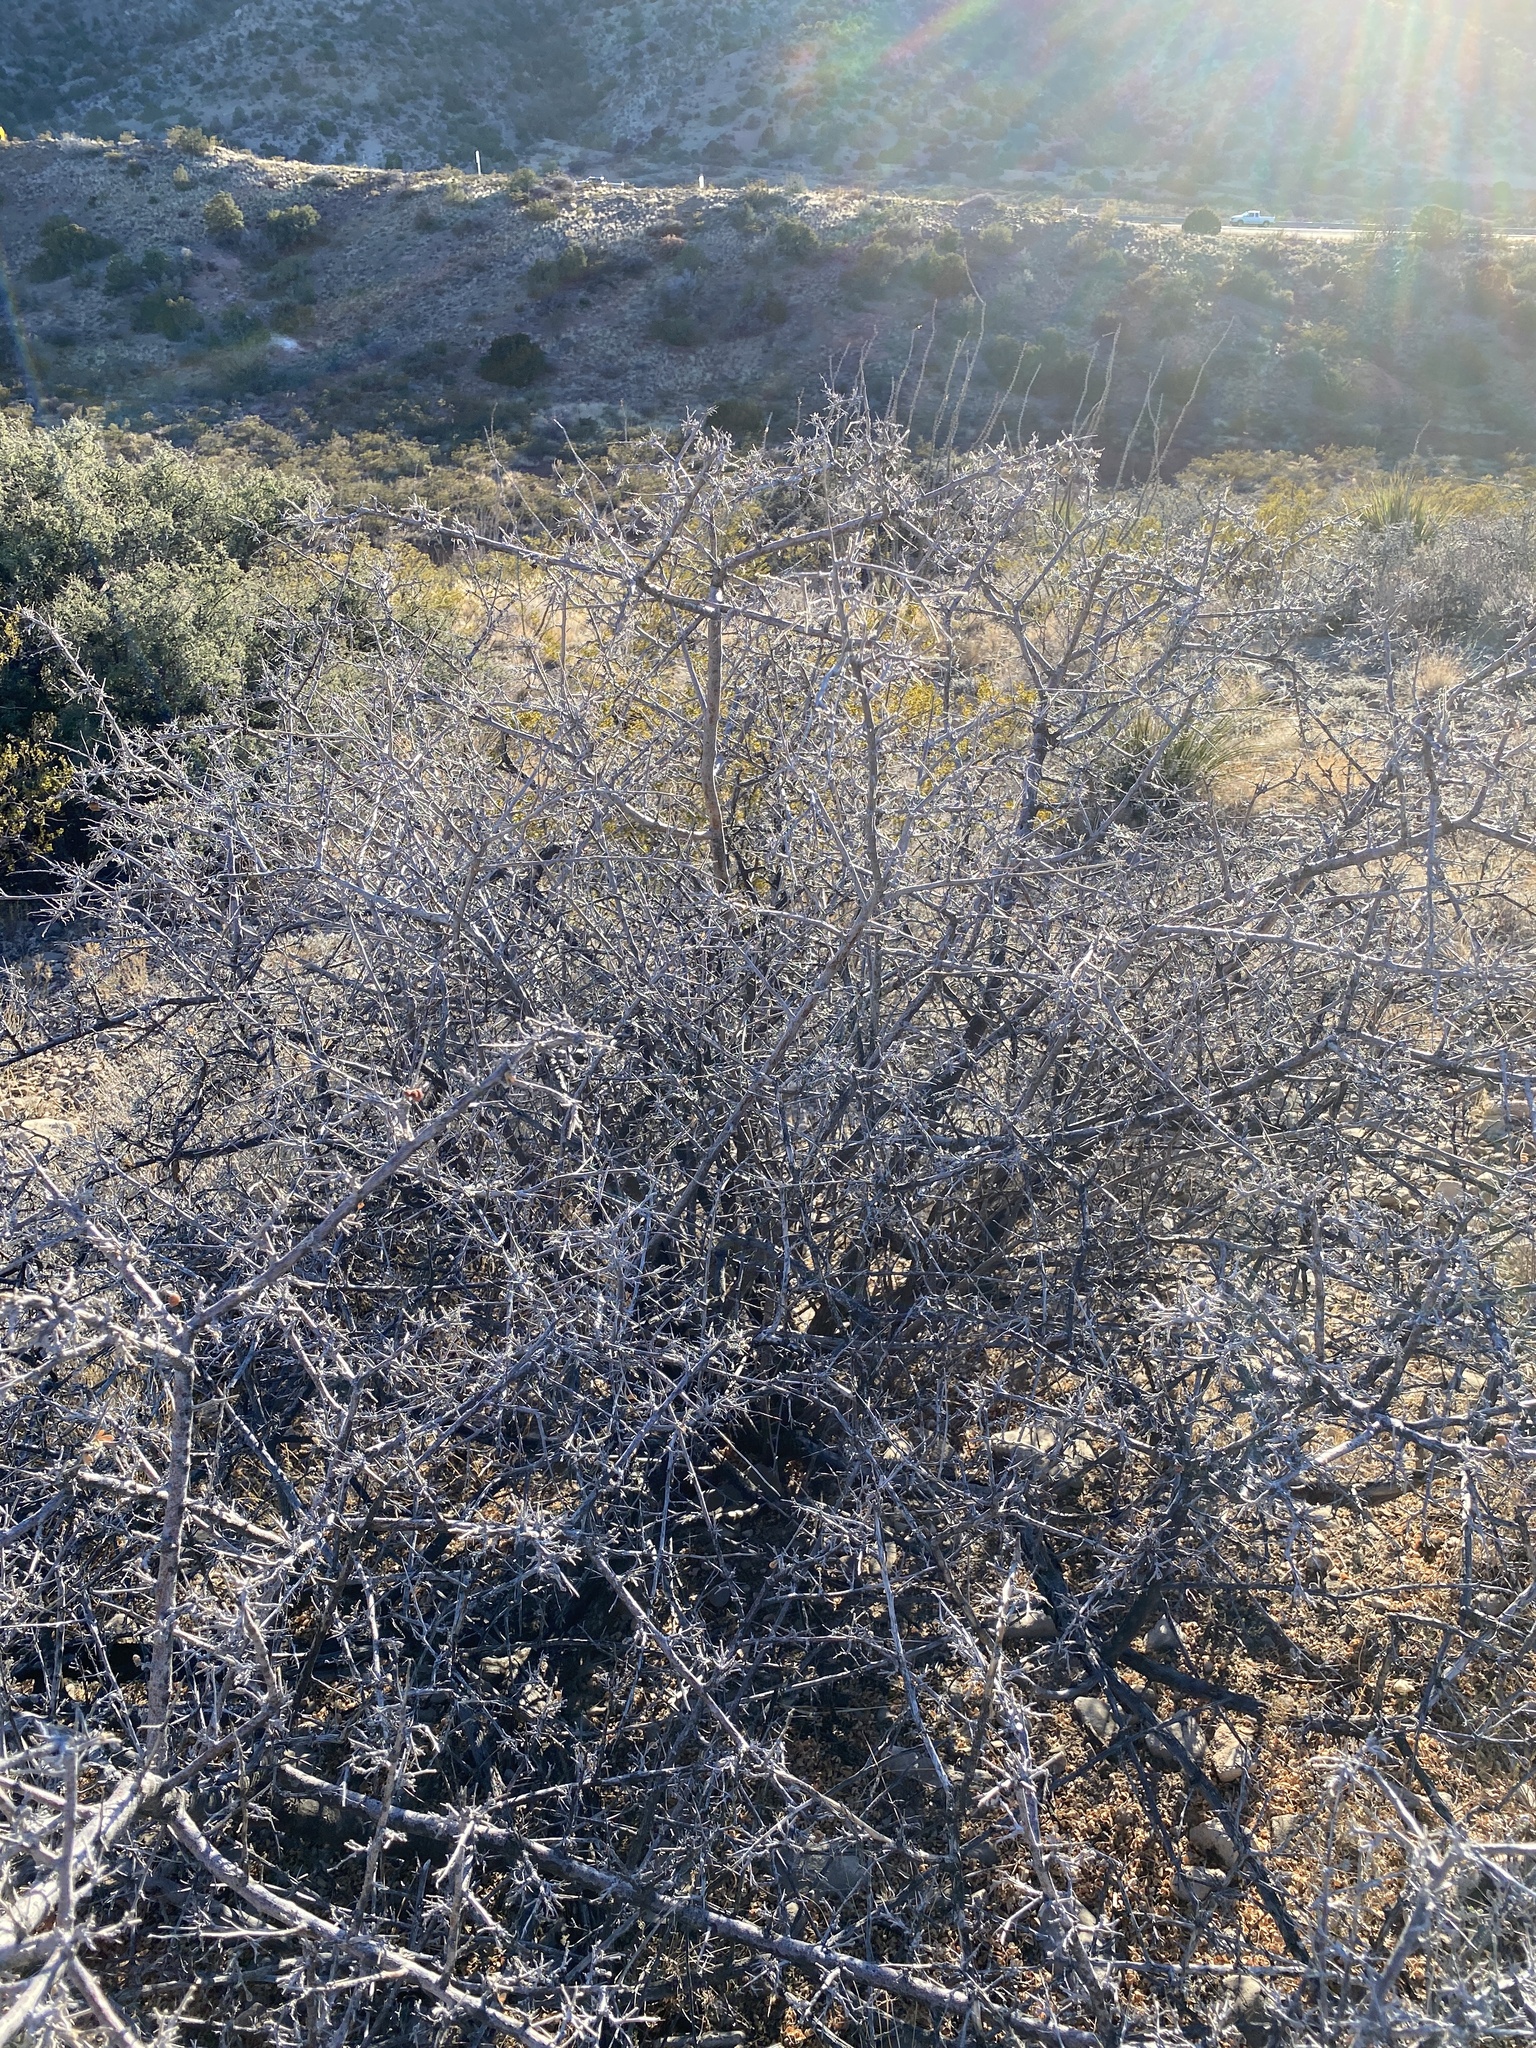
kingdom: Plantae
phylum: Tracheophyta
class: Magnoliopsida
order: Sapindales
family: Anacardiaceae
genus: Rhus
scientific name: Rhus microphylla
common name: Desert sumac
